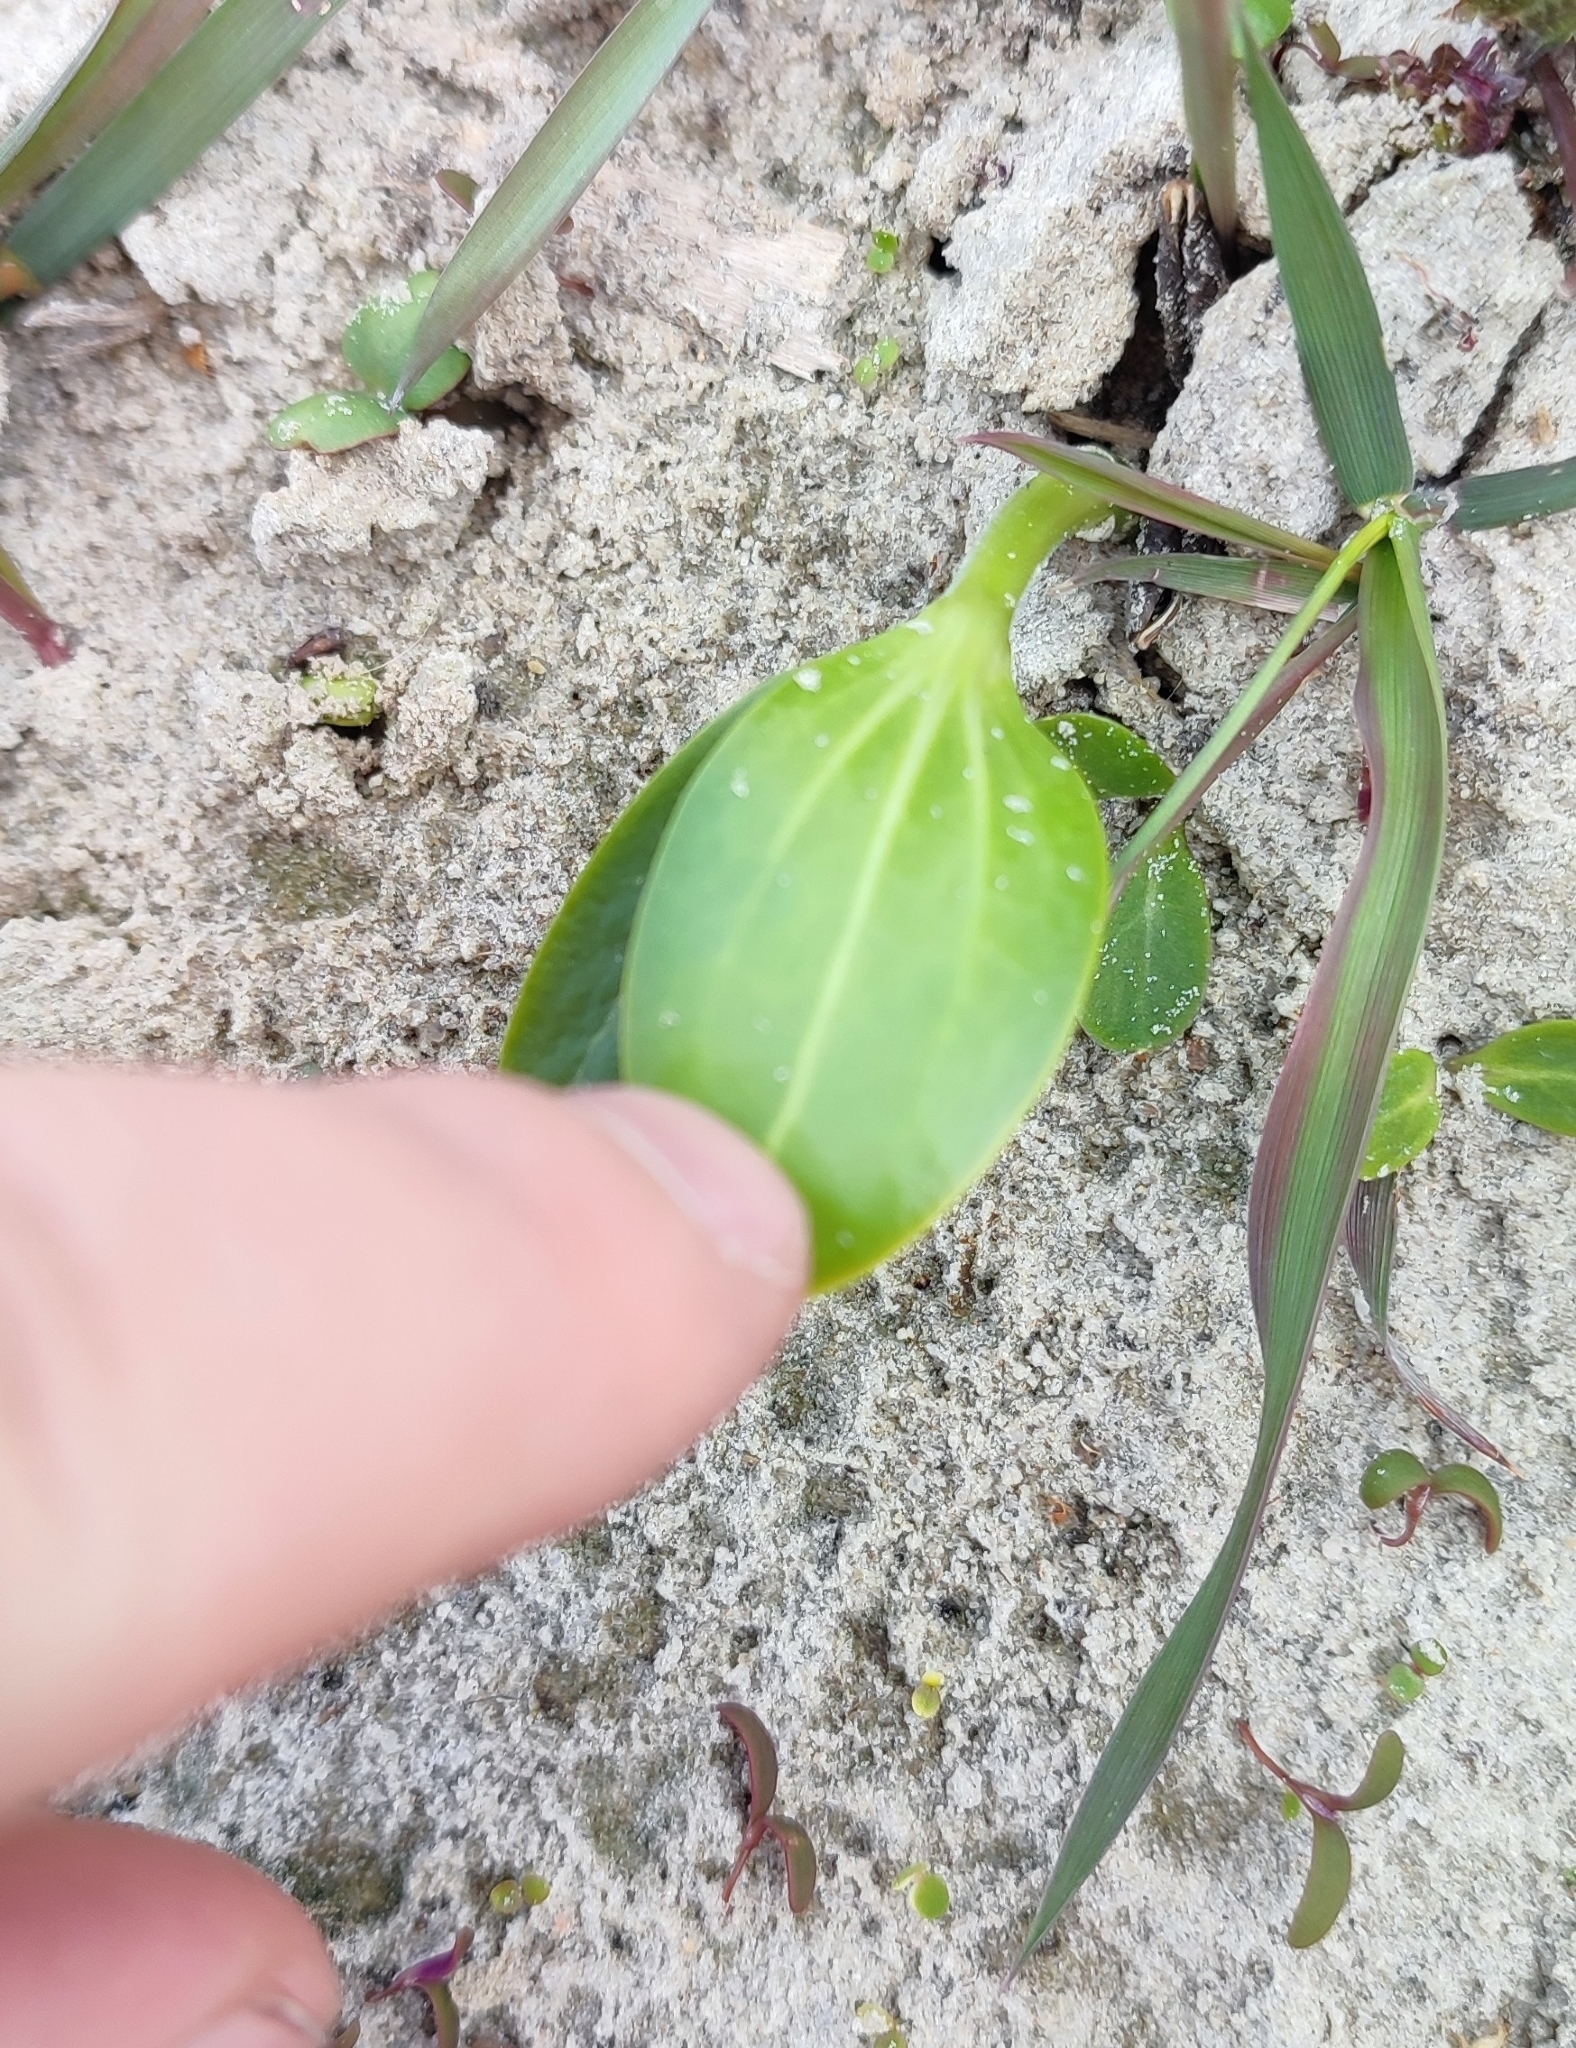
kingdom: Plantae
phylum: Tracheophyta
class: Magnoliopsida
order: Cucurbitales
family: Cucurbitaceae
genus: Echinocystis
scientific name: Echinocystis lobata
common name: Wild cucumber
